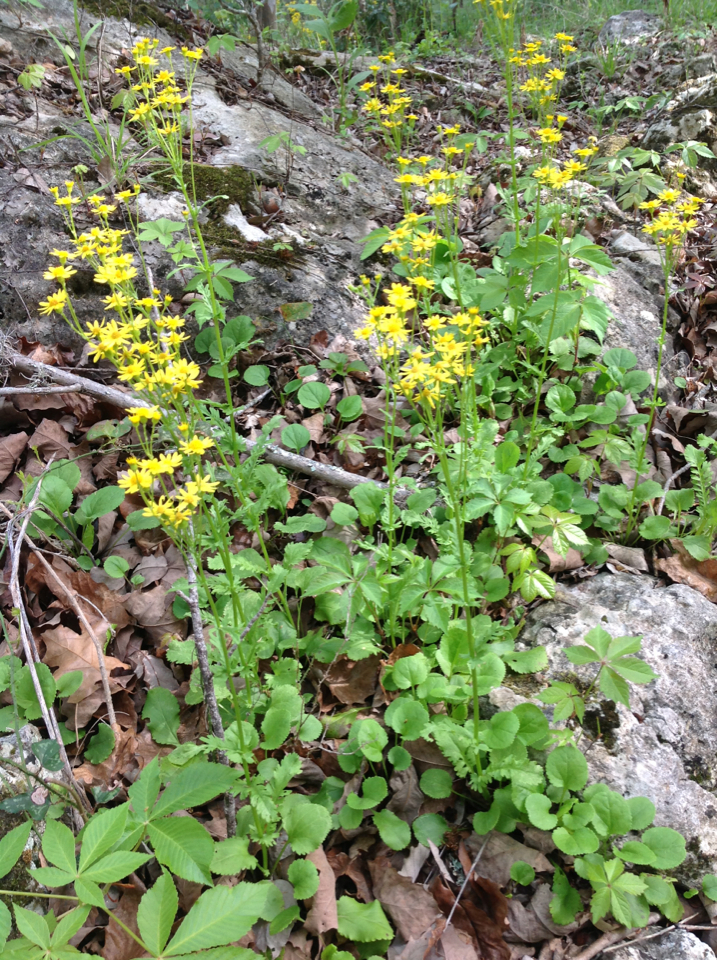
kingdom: Plantae
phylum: Tracheophyta
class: Magnoliopsida
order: Asterales
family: Asteraceae
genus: Packera
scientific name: Packera obovata
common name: Round-leaf ragwort
